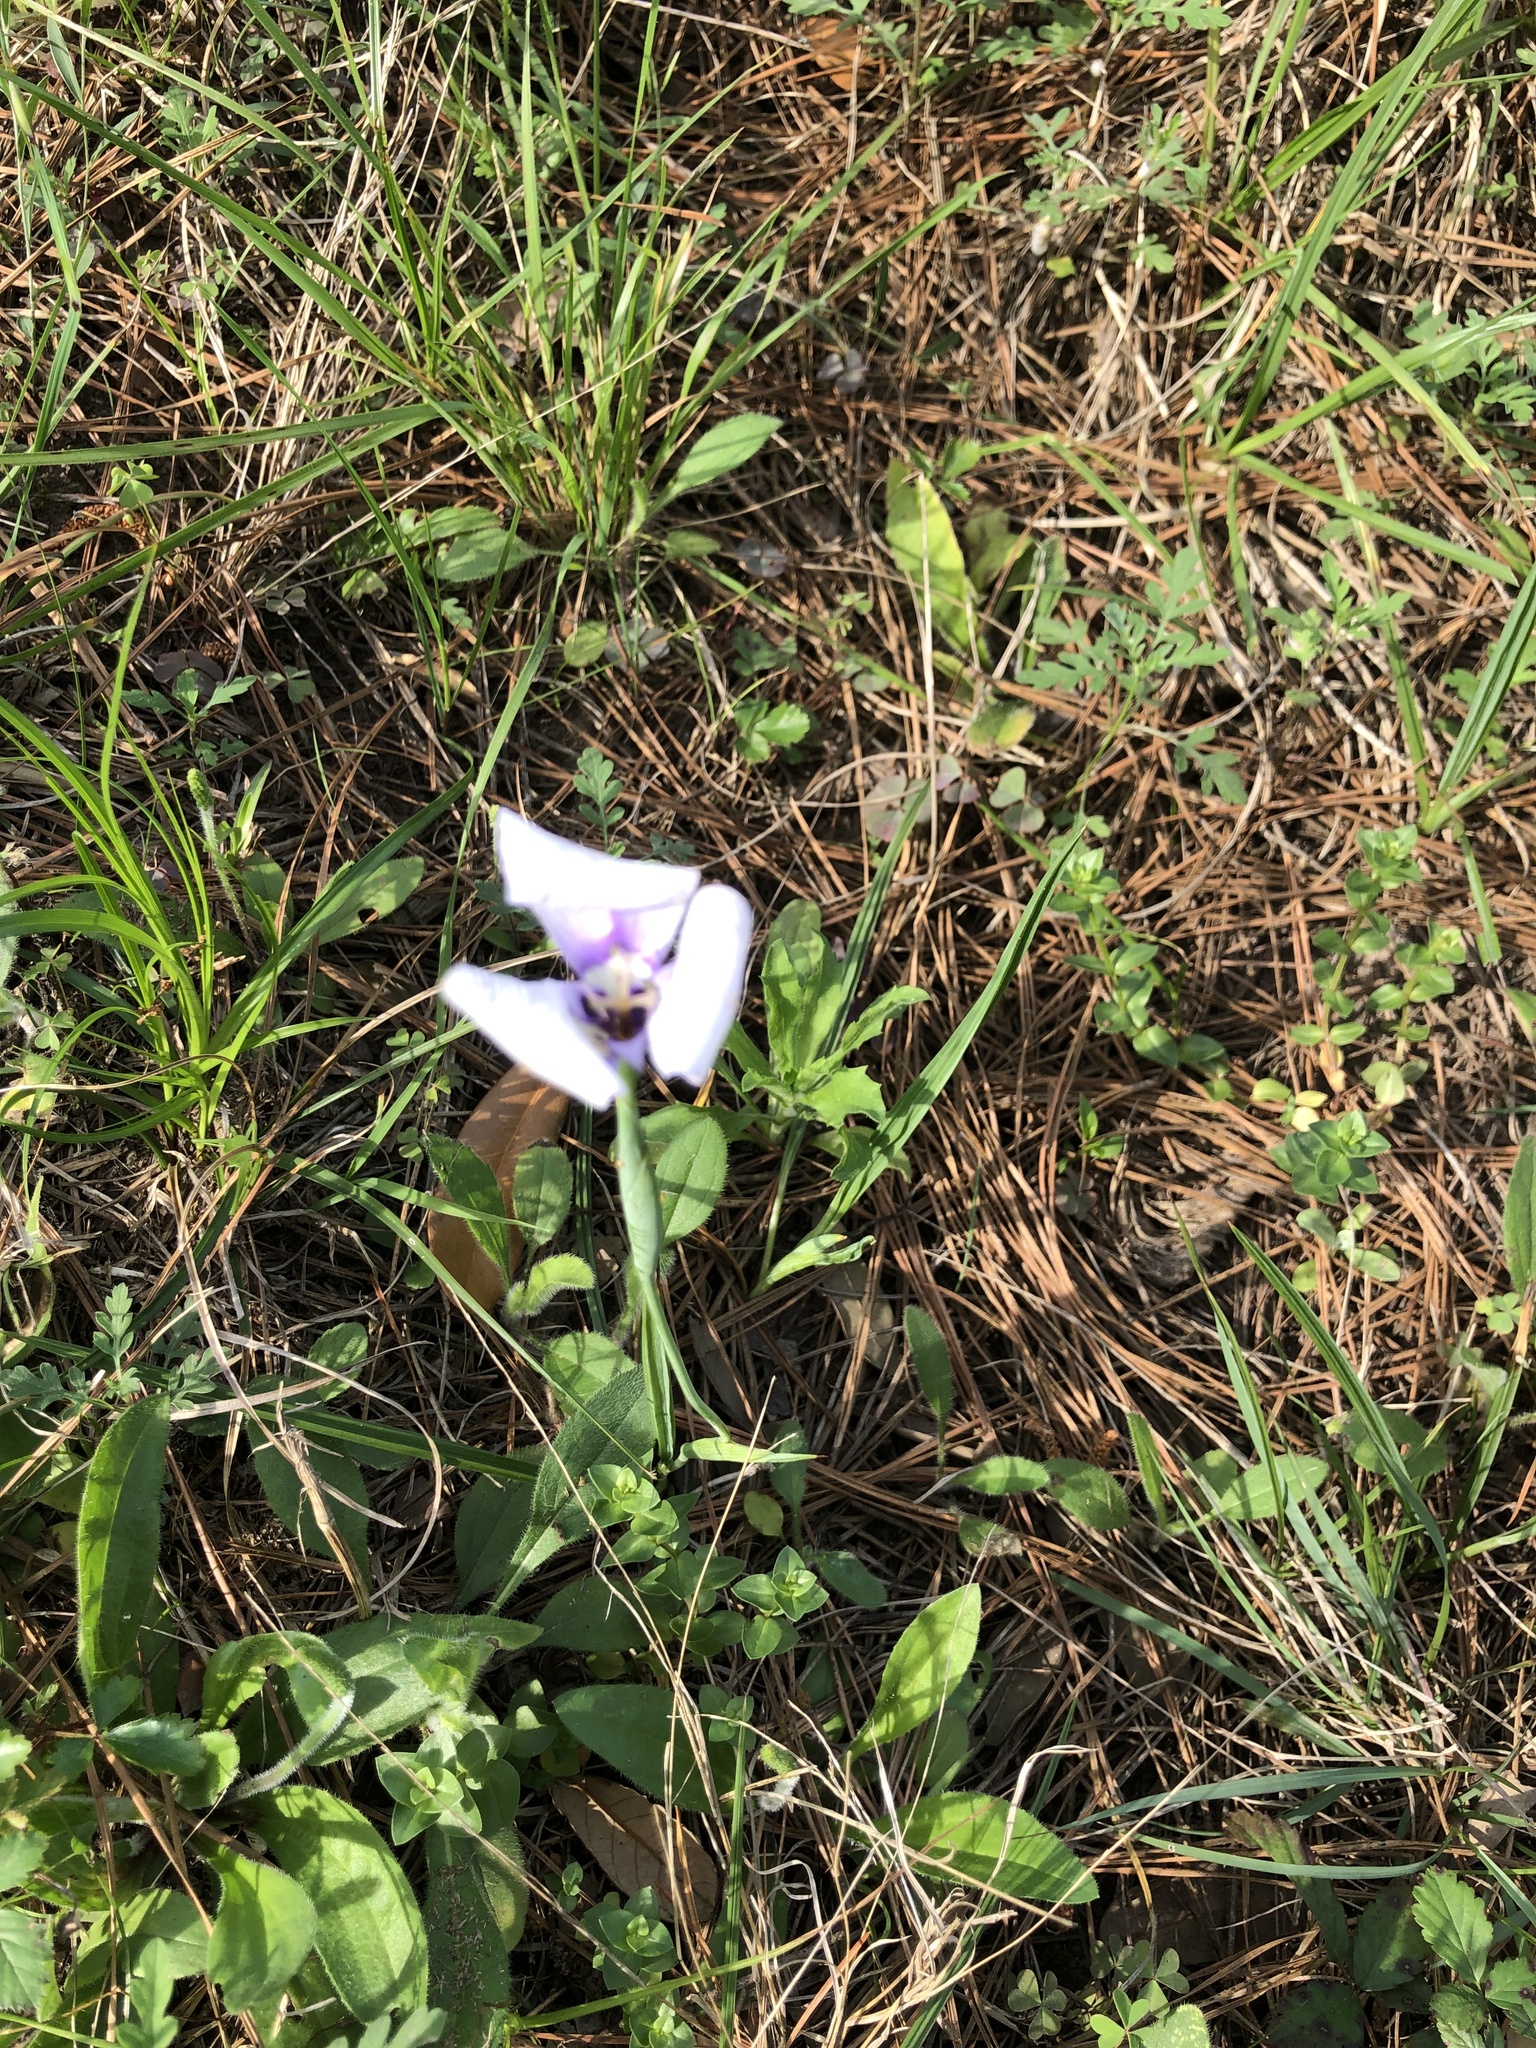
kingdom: Plantae
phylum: Tracheophyta
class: Liliopsida
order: Asparagales
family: Iridaceae
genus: Herbertia
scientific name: Herbertia lahue
